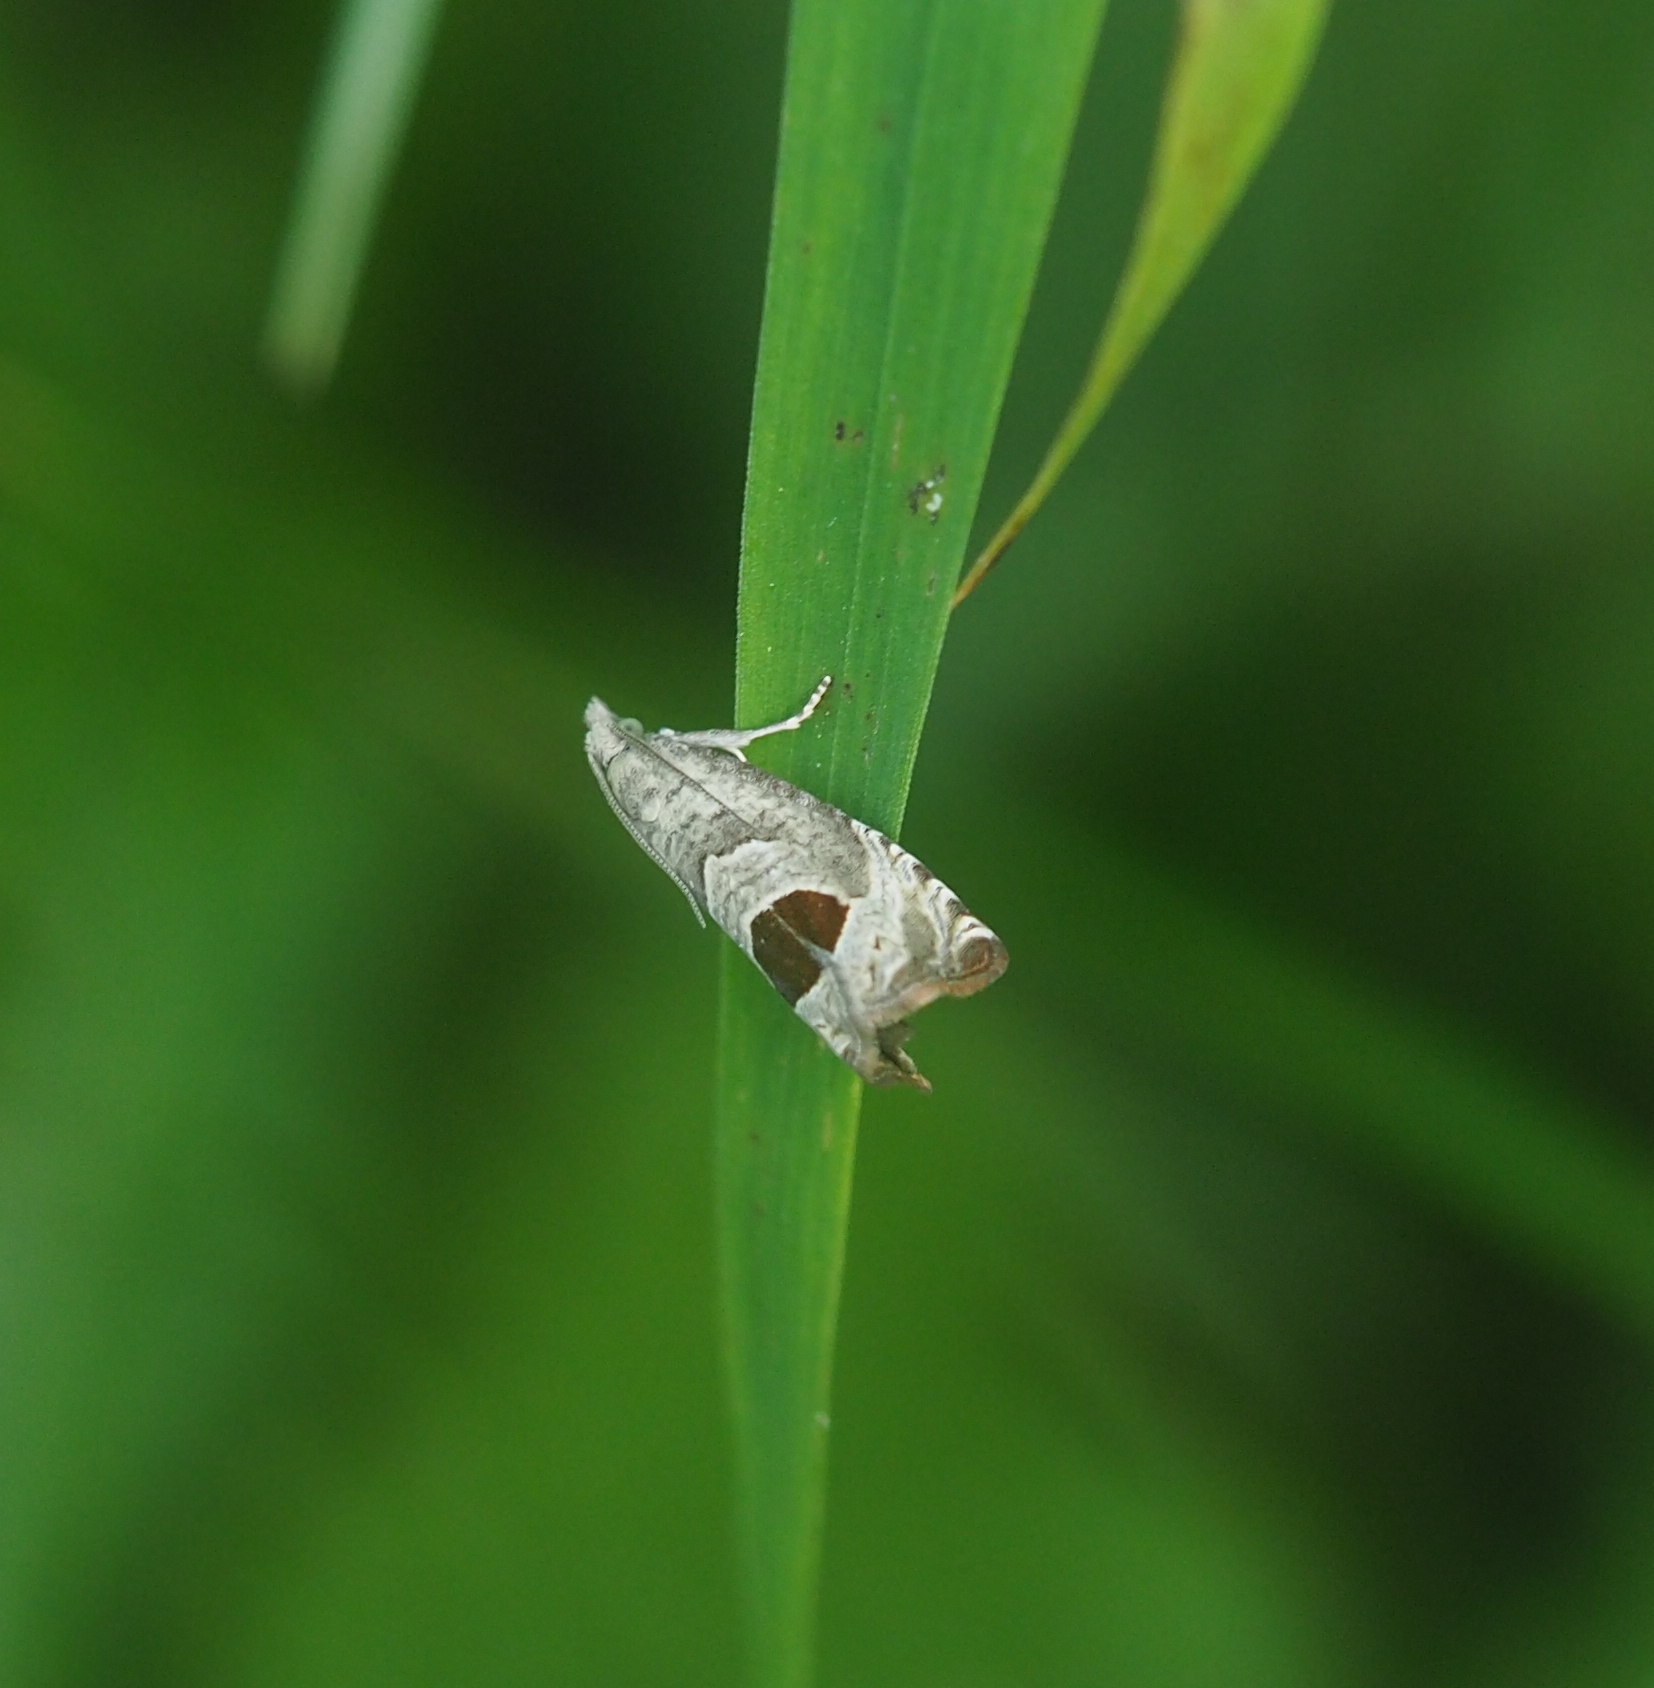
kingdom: Animalia
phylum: Arthropoda
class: Insecta
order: Lepidoptera
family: Tortricidae
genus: Notocelia
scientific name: Notocelia uddmanniana
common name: Bramble shoot moth
